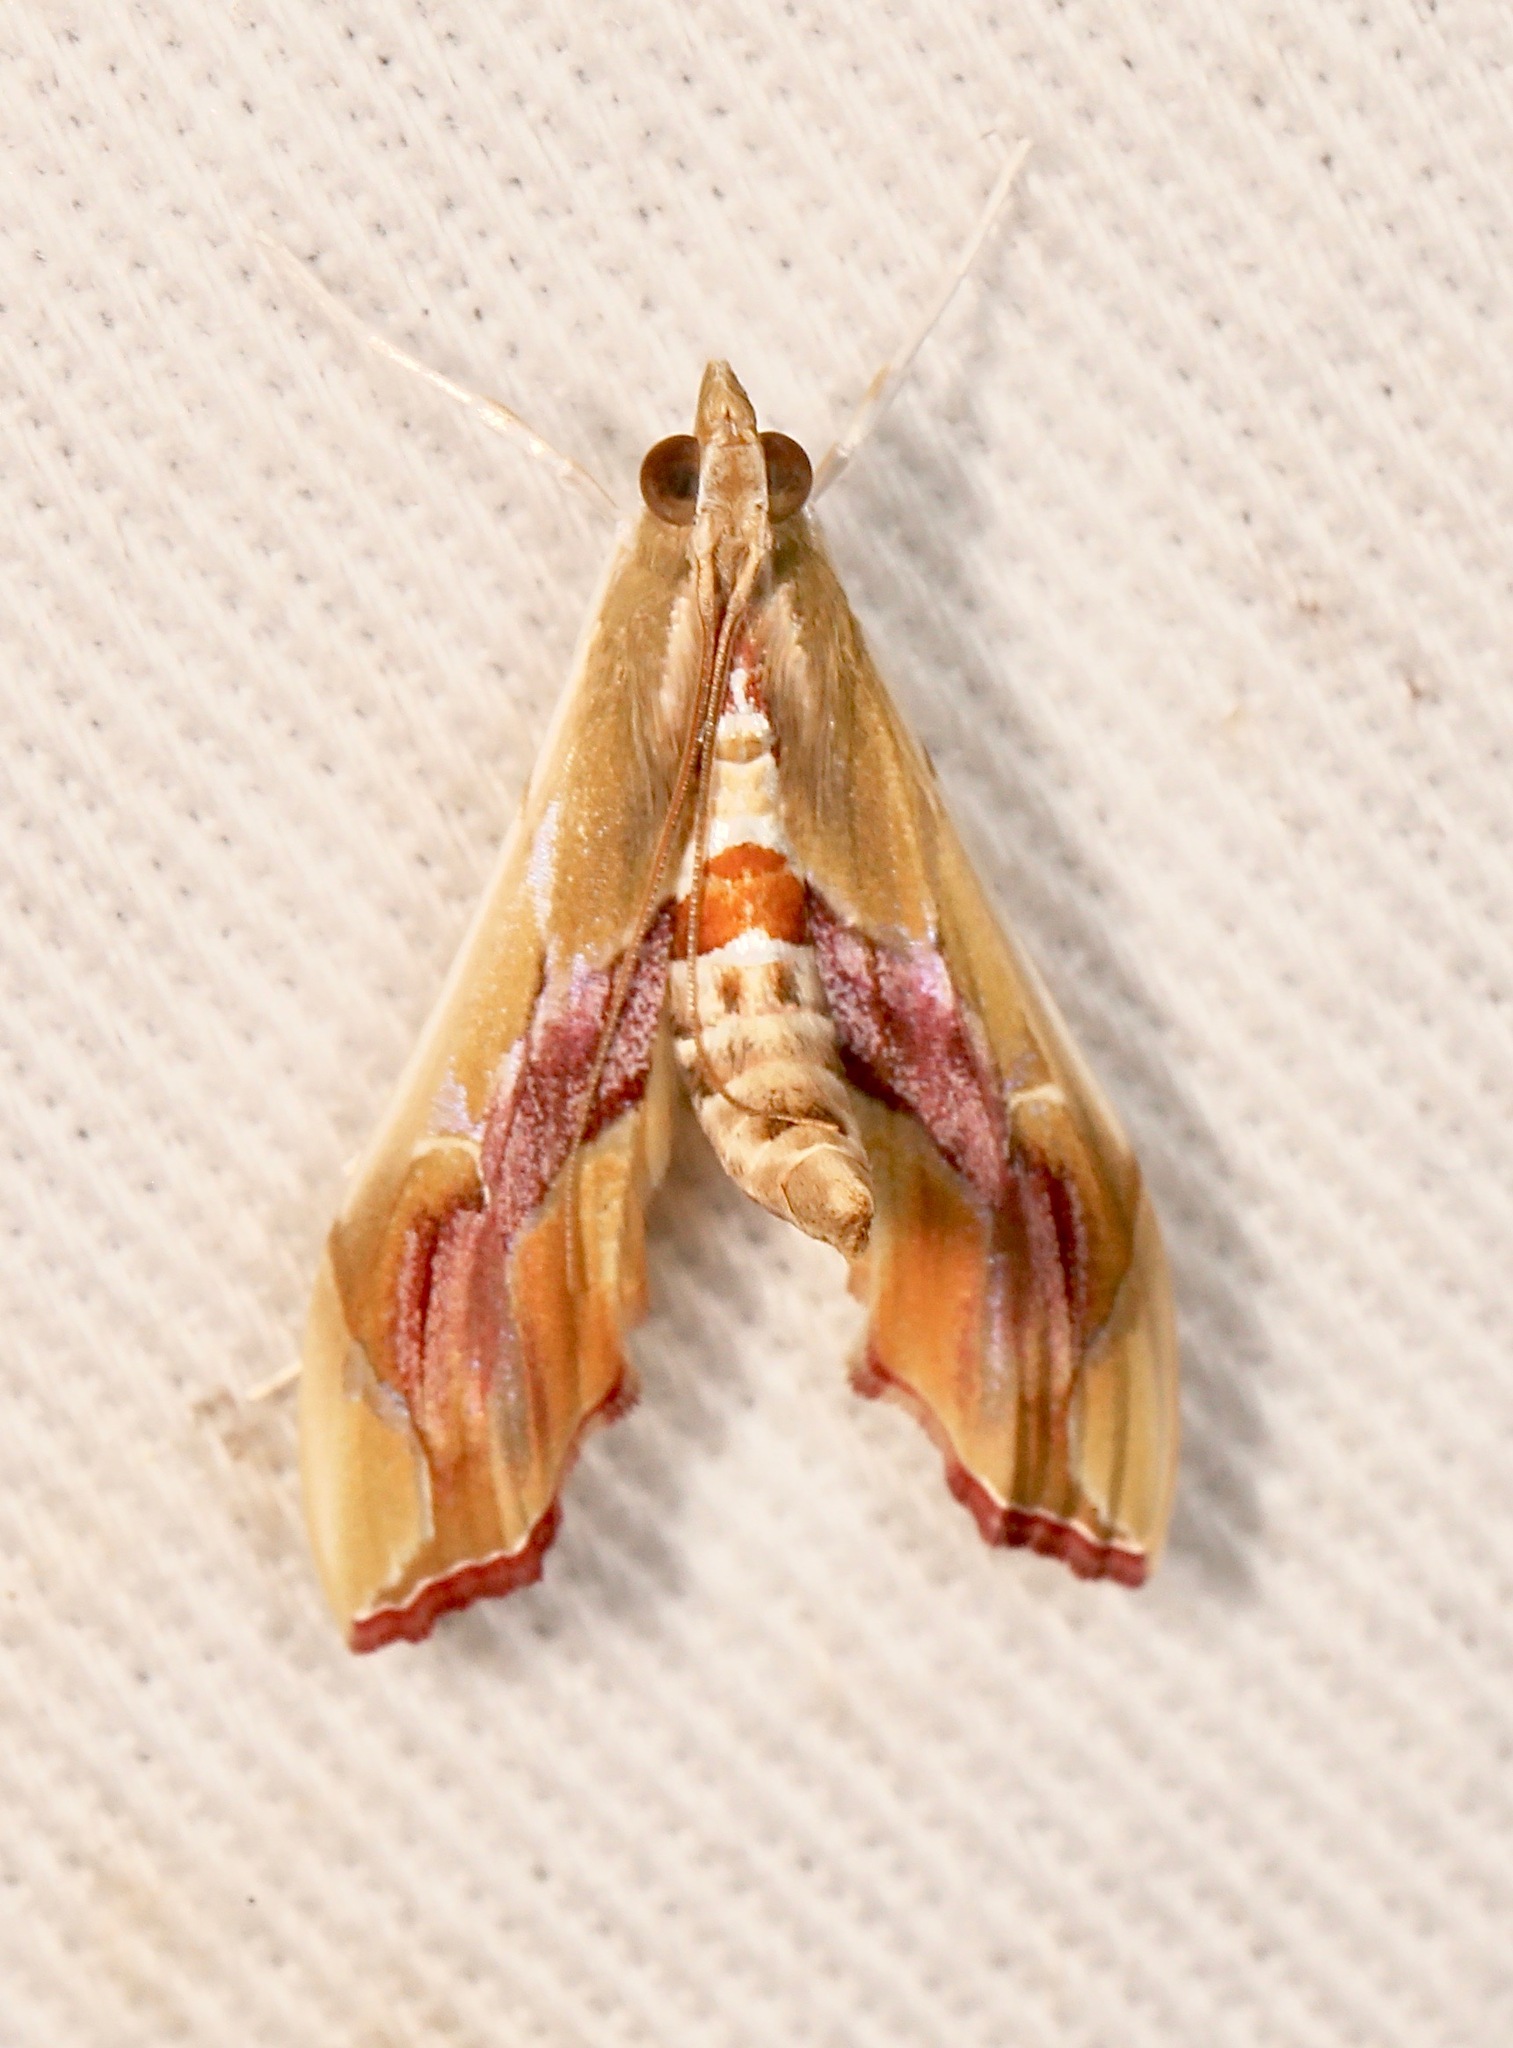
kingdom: Animalia
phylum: Arthropoda
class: Insecta
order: Lepidoptera
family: Crambidae
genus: Agathodes
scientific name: Agathodes monstralis
